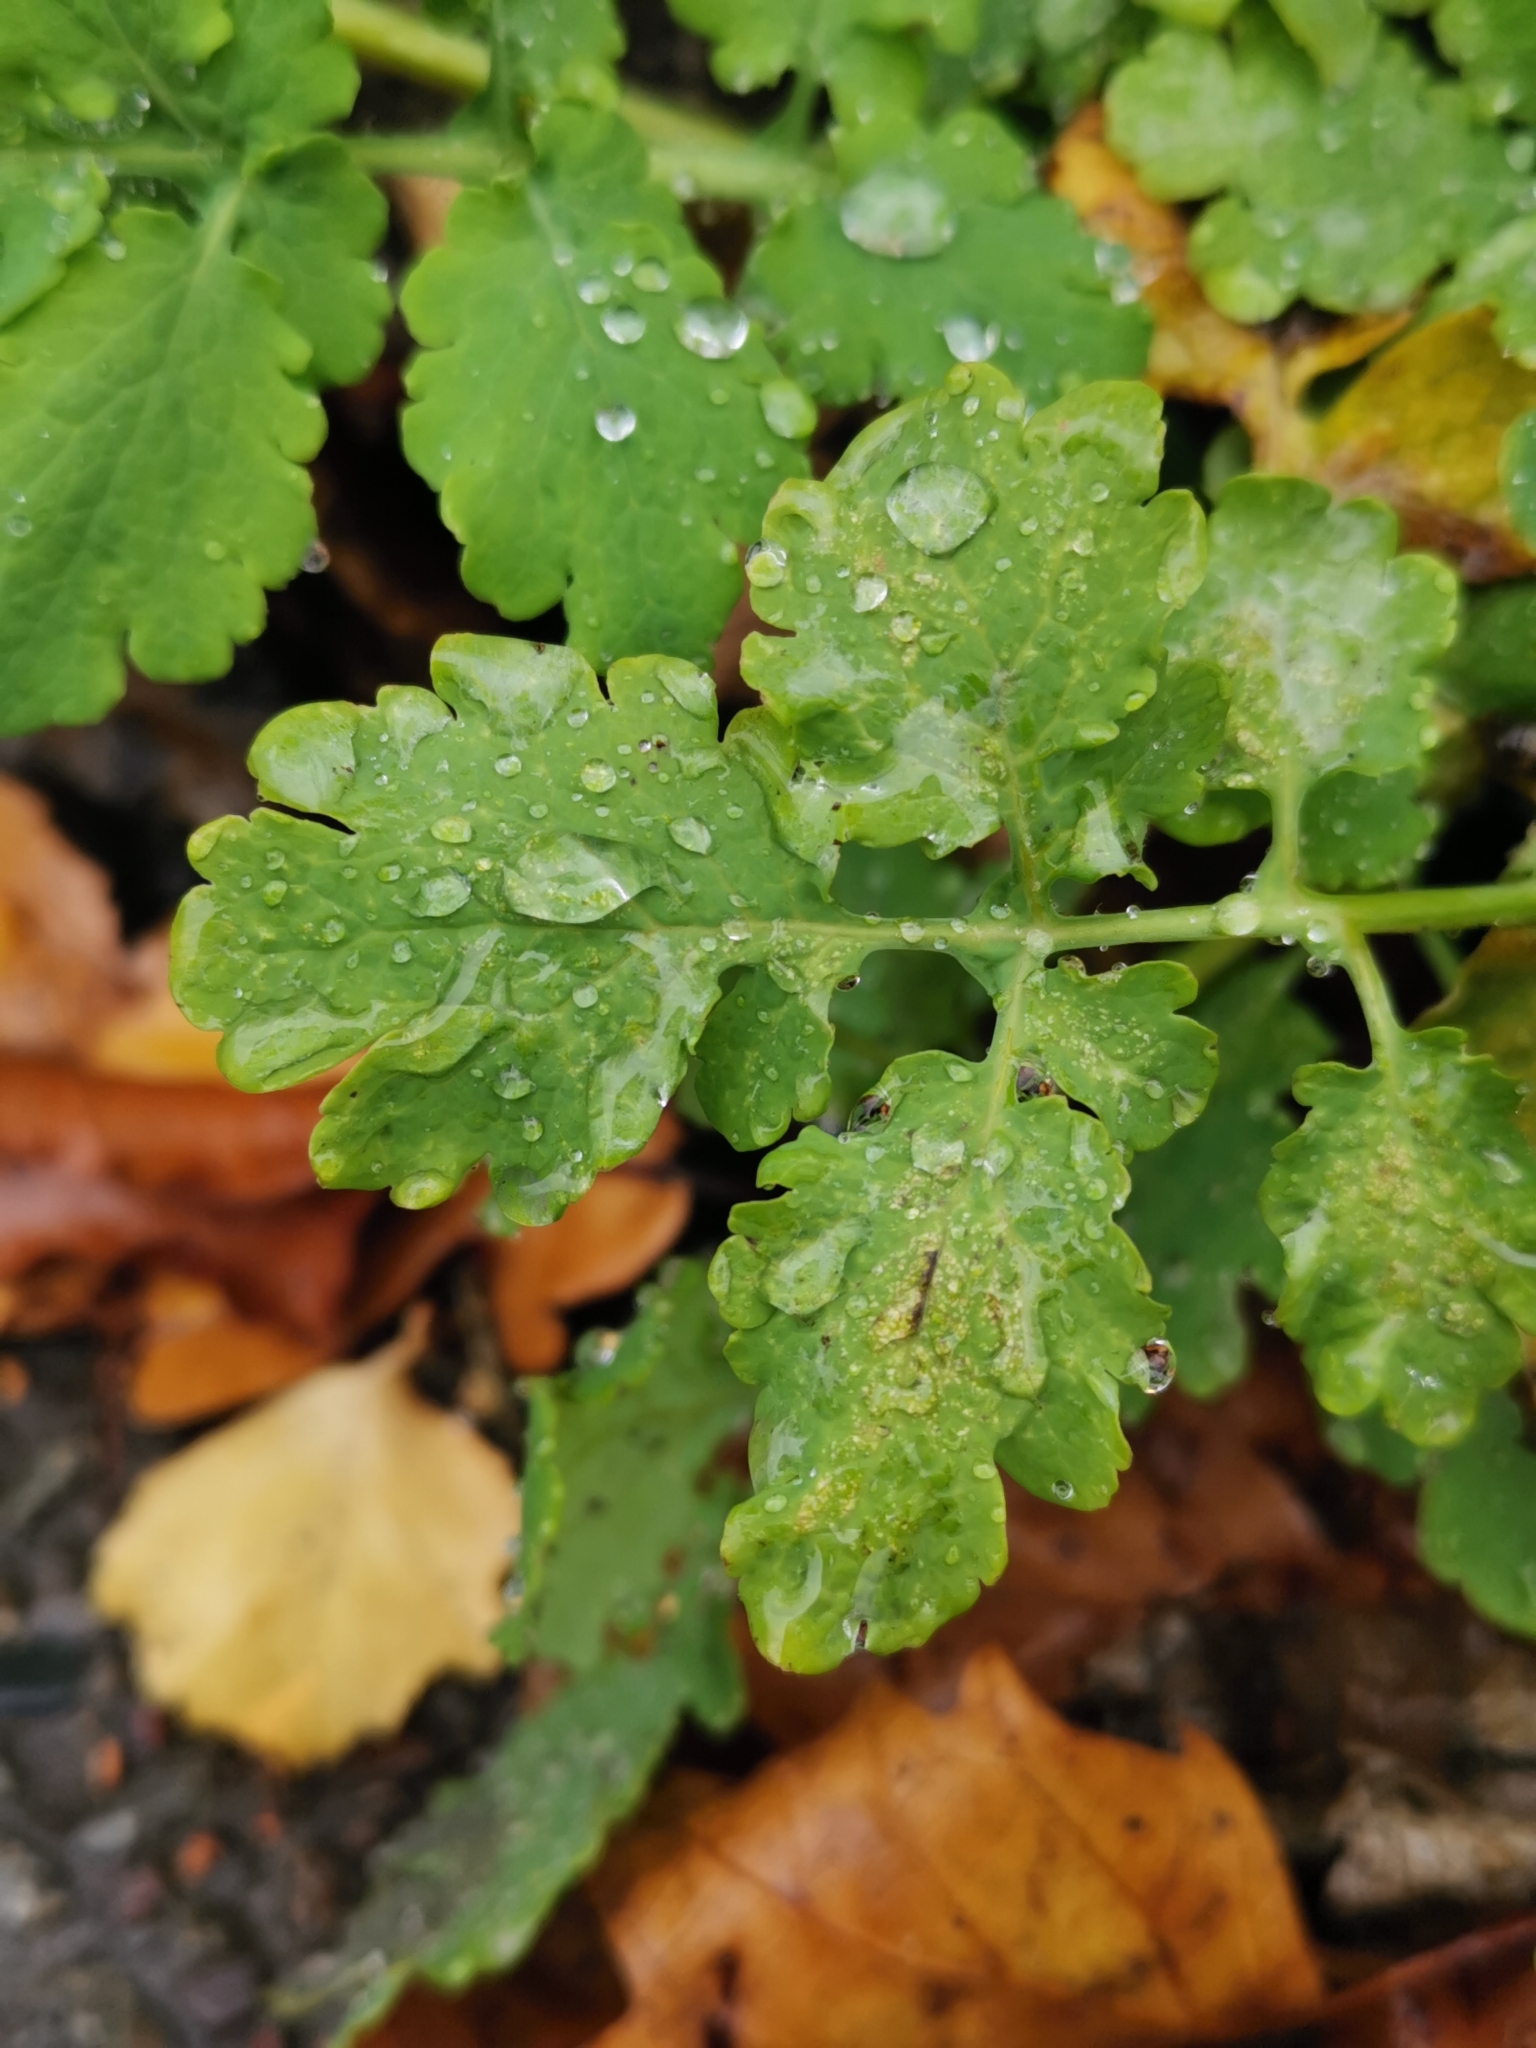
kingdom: Plantae
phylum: Tracheophyta
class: Magnoliopsida
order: Ranunculales
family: Papaveraceae
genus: Chelidonium
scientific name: Chelidonium majus
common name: Greater celandine
